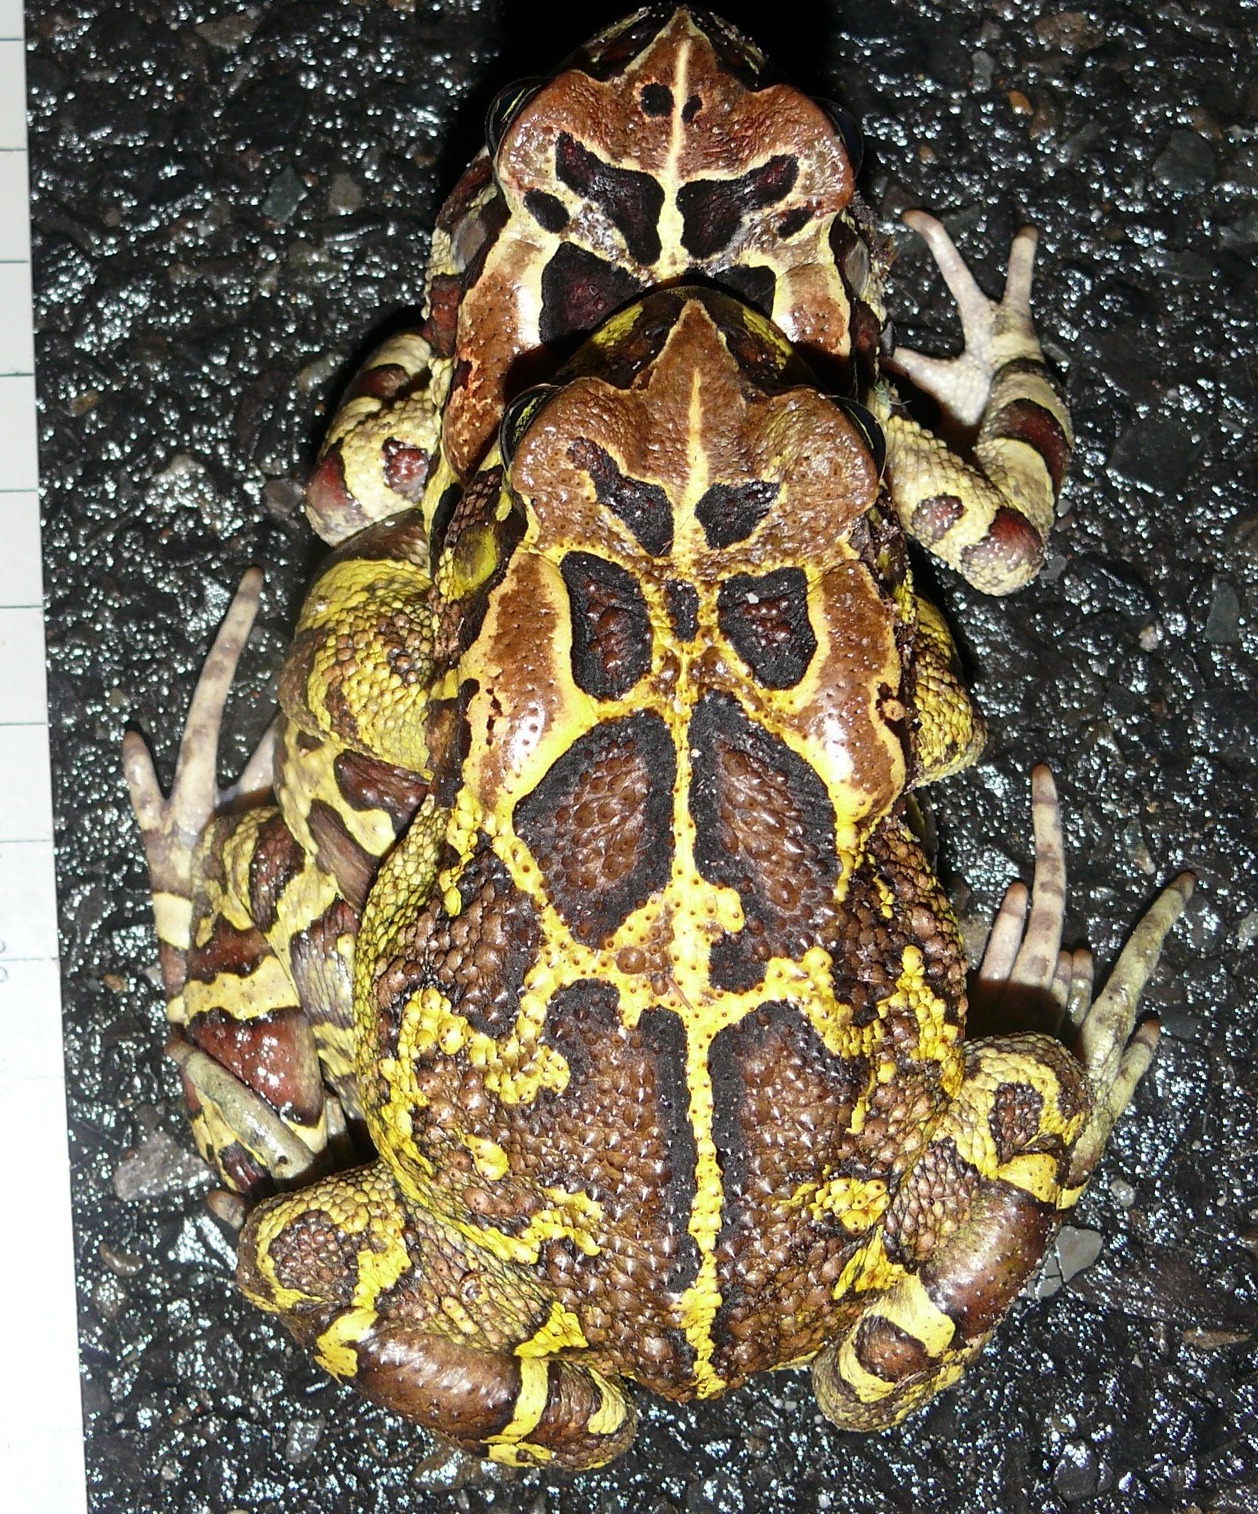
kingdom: Animalia
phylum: Chordata
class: Amphibia
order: Anura
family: Bufonidae
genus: Sclerophrys
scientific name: Sclerophrys pantherina
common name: Panther toad
